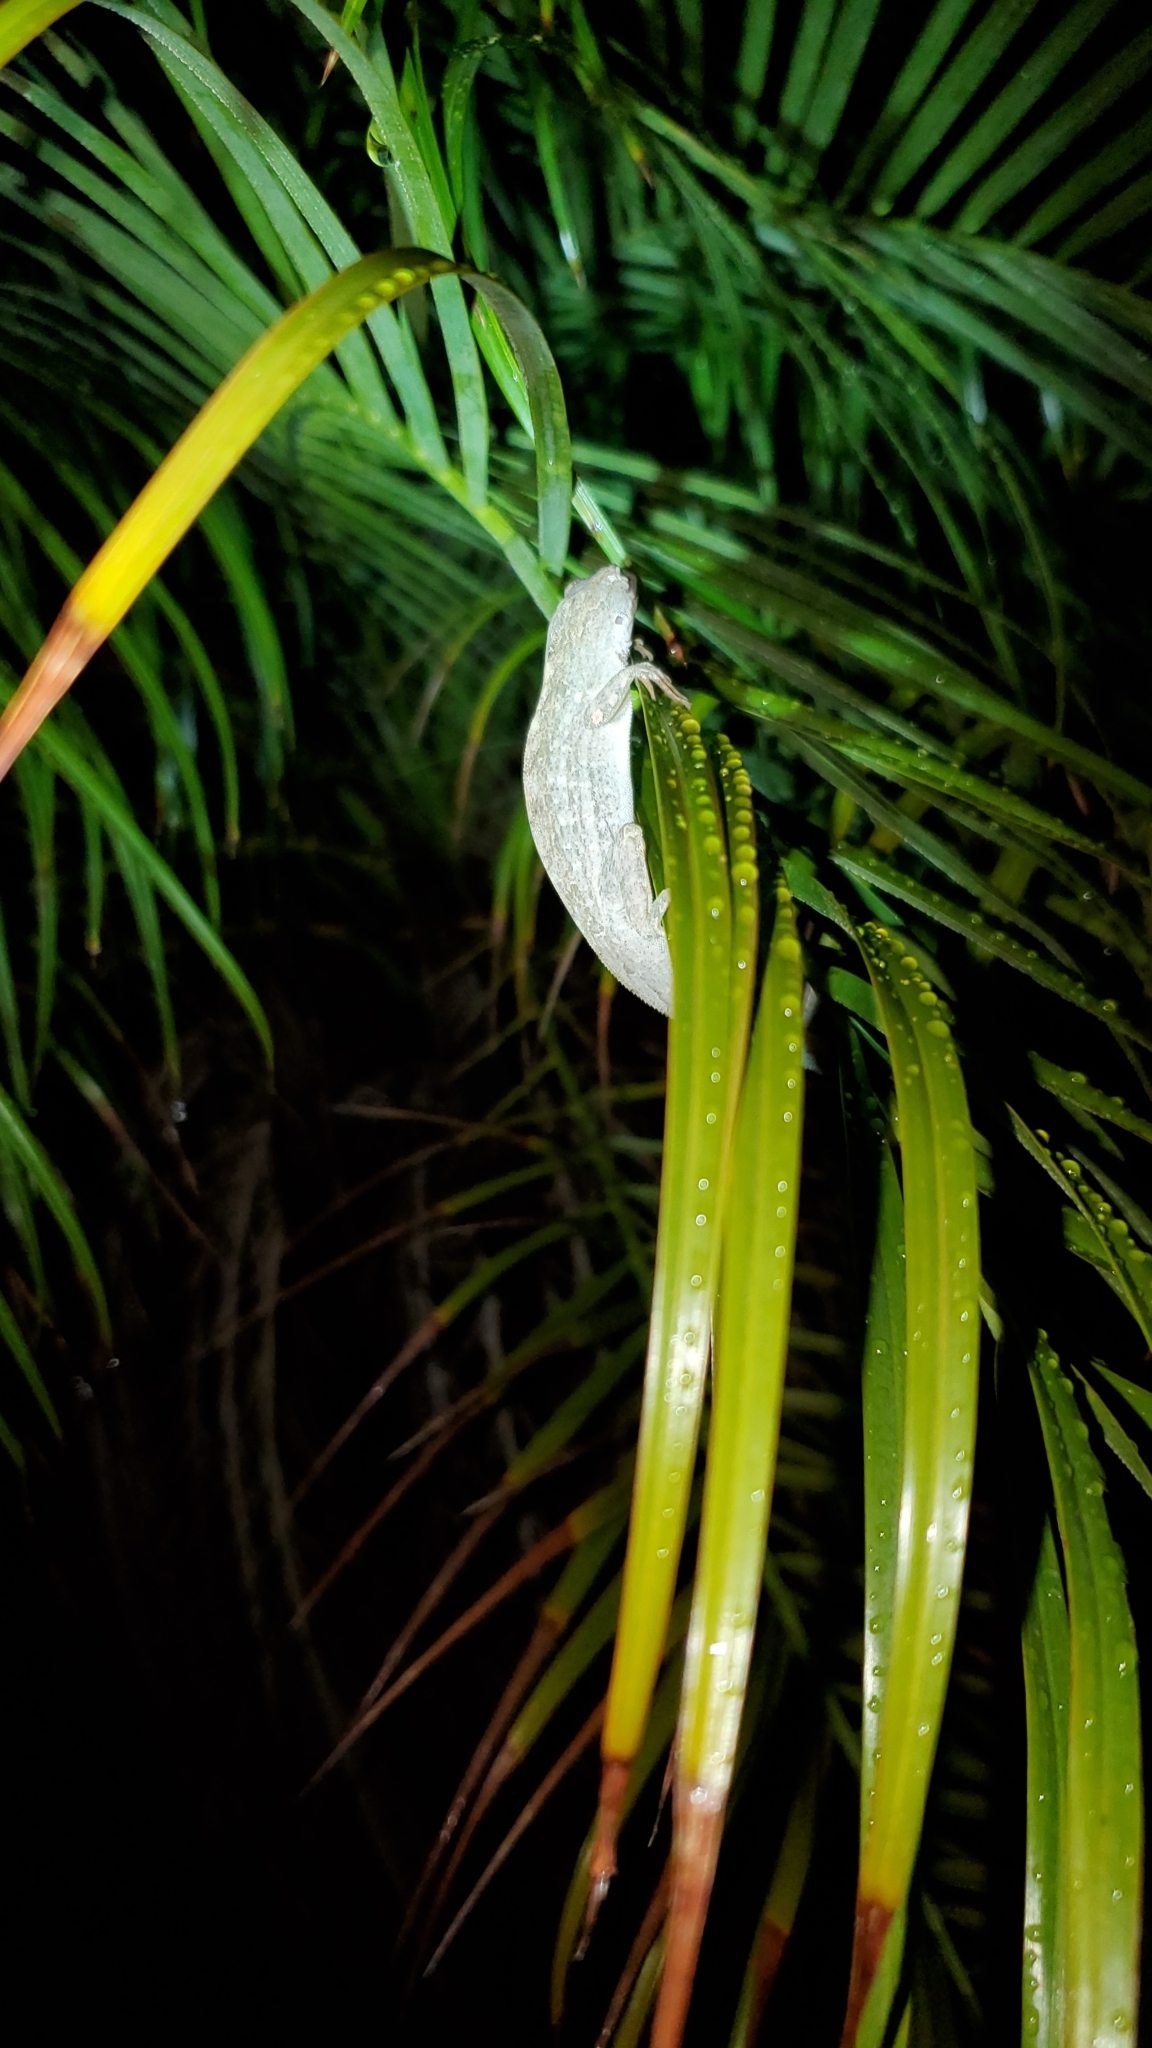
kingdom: Animalia
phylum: Chordata
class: Squamata
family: Dactyloidae
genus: Anolis
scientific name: Anolis sagrei
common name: Brown anole
